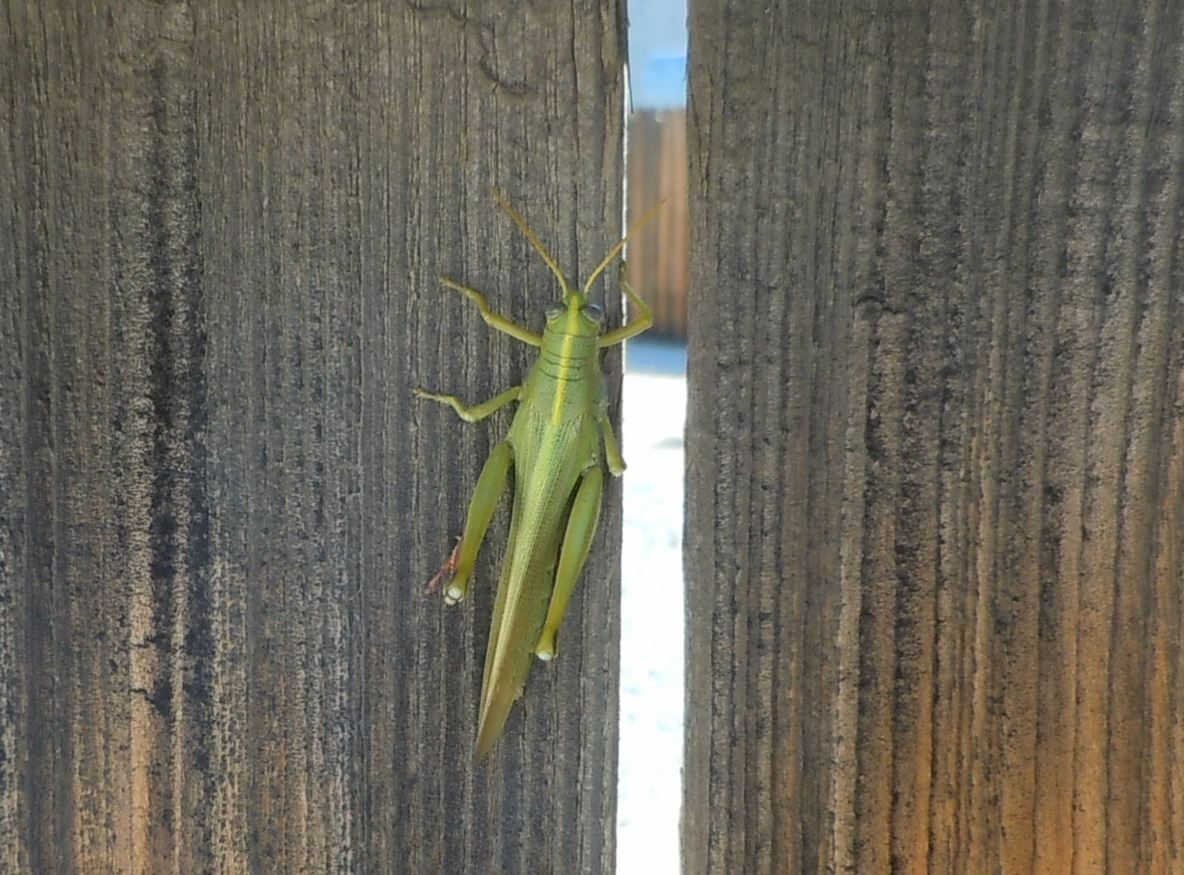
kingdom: Animalia
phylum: Arthropoda
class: Insecta
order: Orthoptera
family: Acrididae
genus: Schistocerca
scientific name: Schistocerca shoshone
